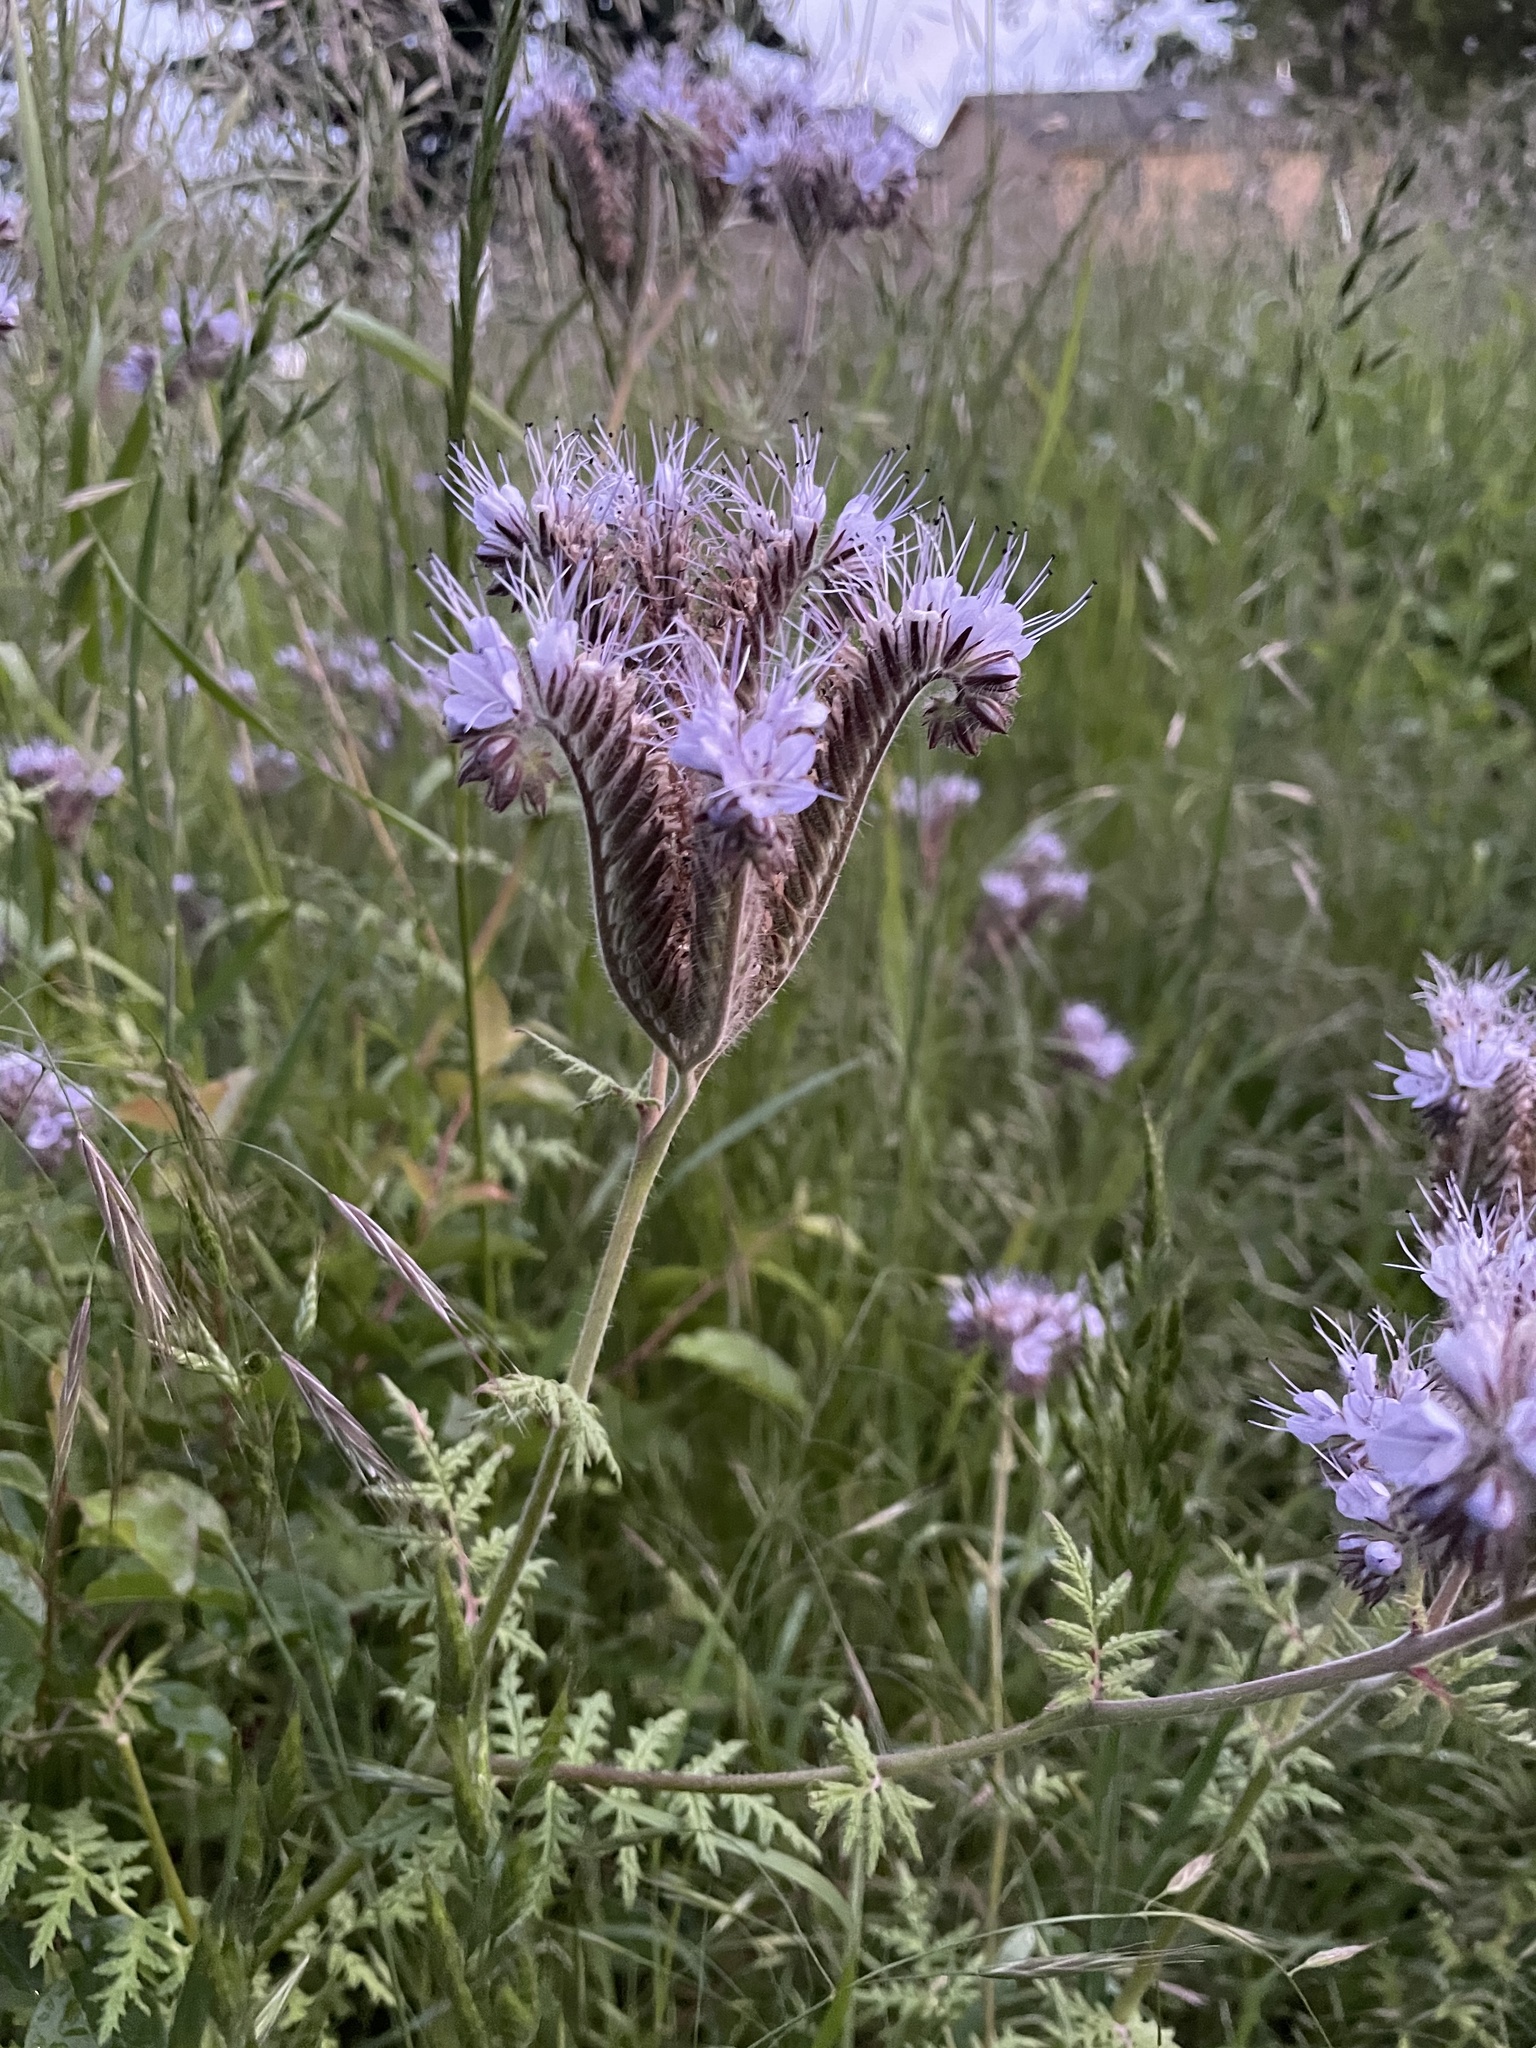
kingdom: Plantae
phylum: Tracheophyta
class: Magnoliopsida
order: Boraginales
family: Hydrophyllaceae
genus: Phacelia
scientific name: Phacelia tanacetifolia
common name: Phacelia
